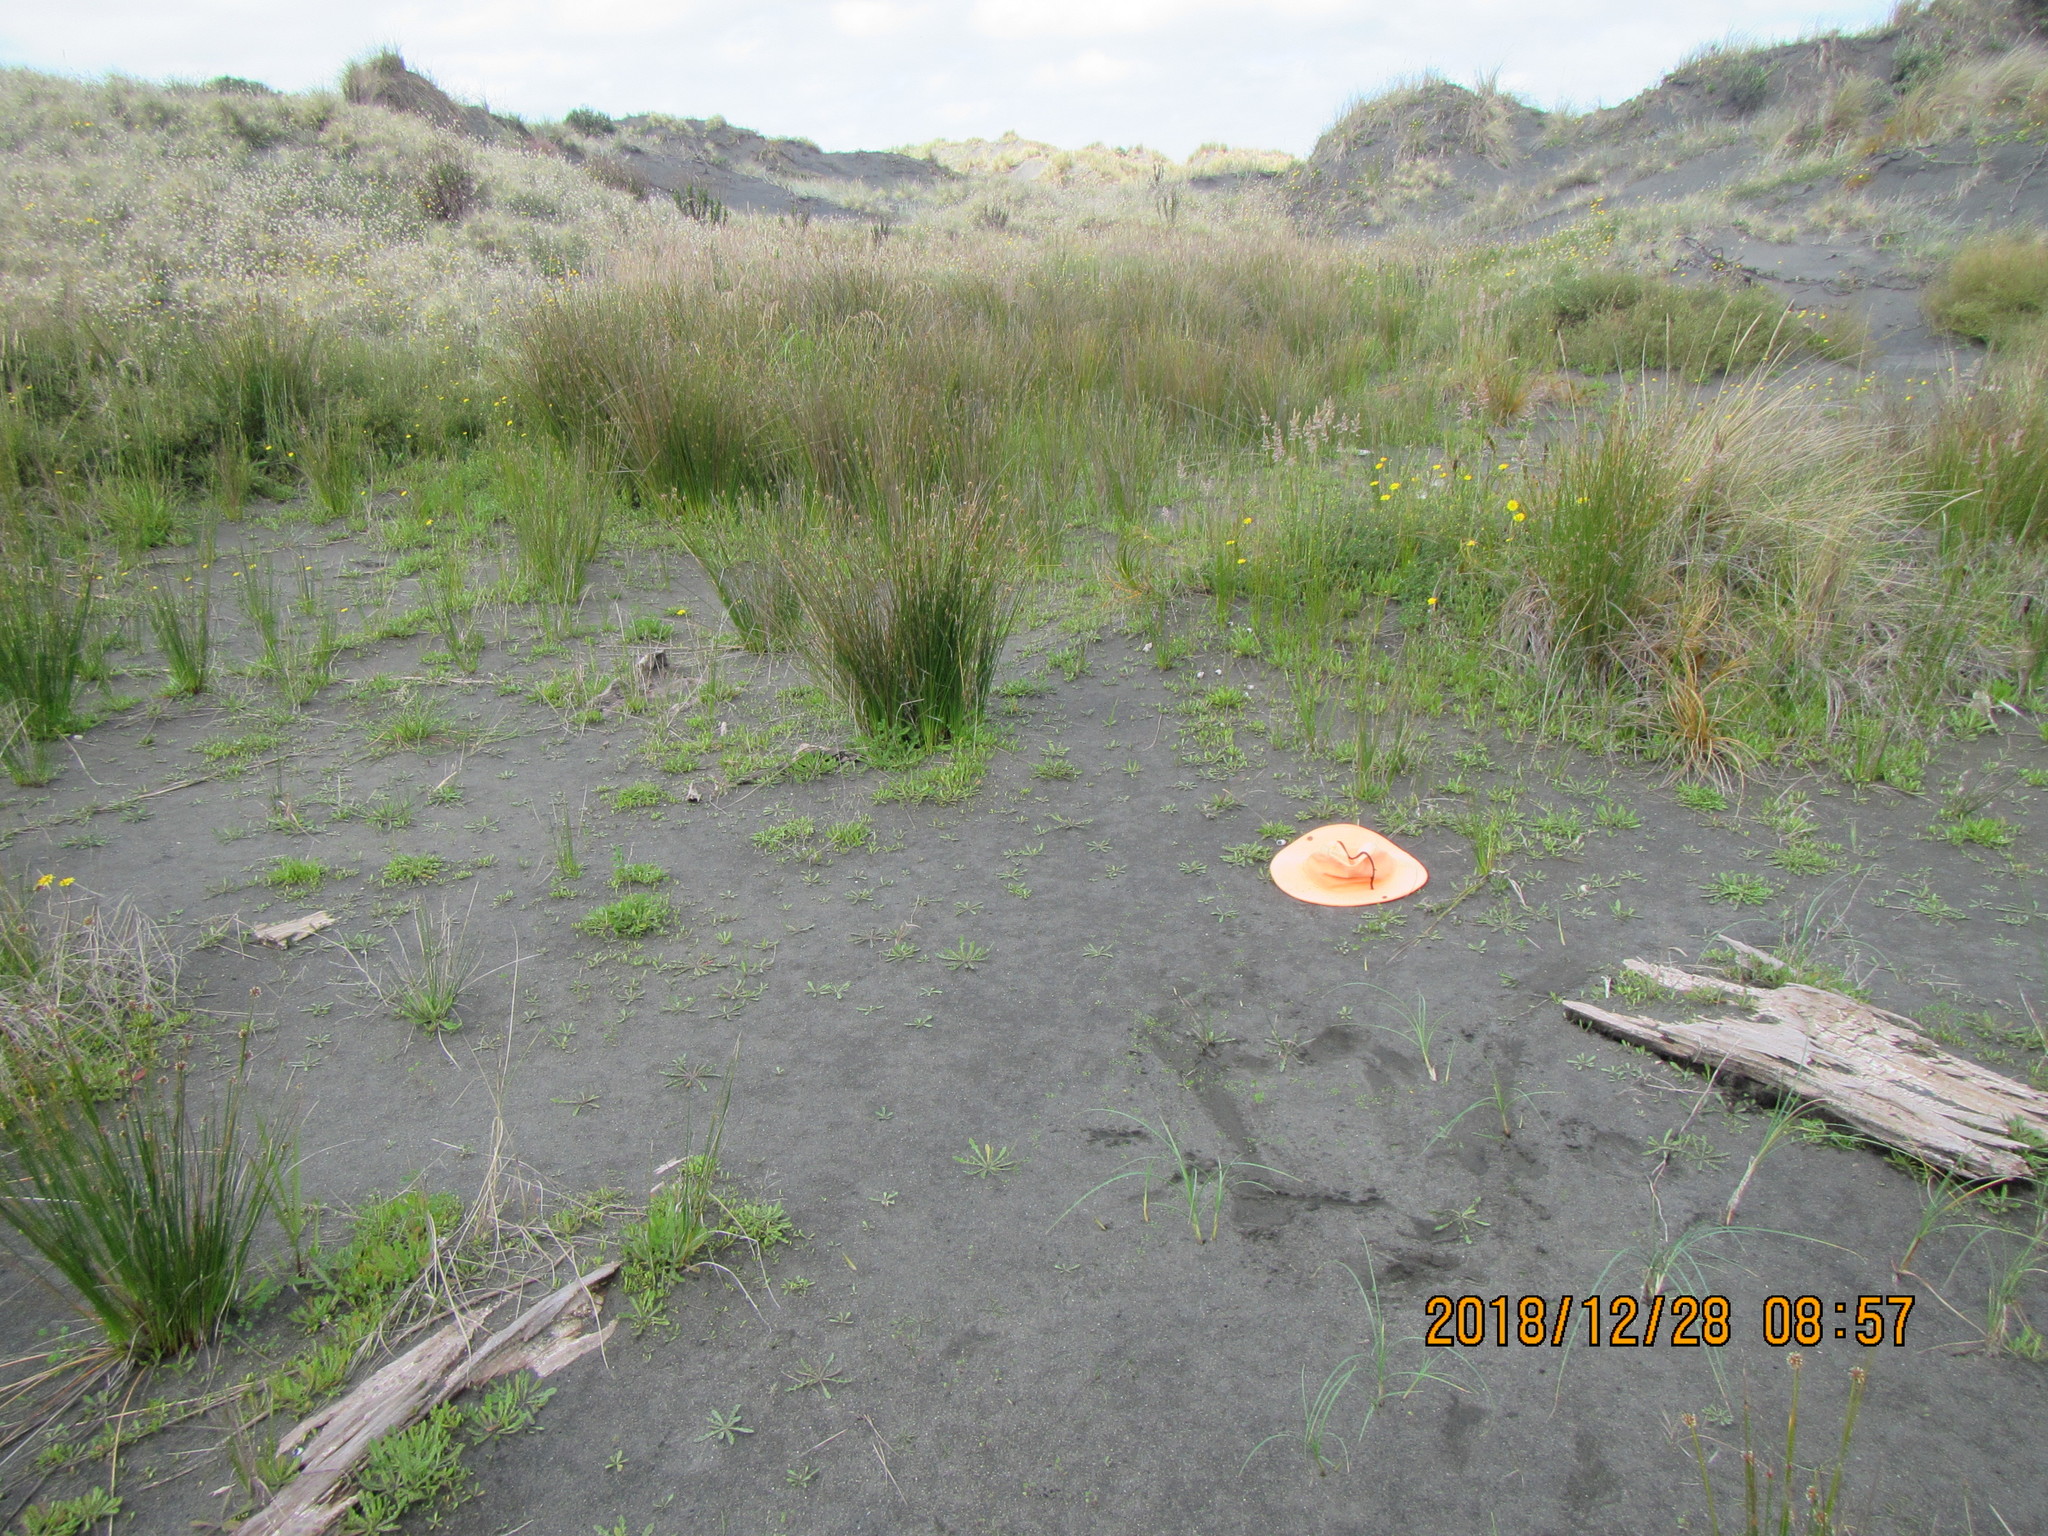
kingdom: Plantae
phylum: Tracheophyta
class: Magnoliopsida
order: Asterales
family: Campanulaceae
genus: Lobelia
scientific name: Lobelia anceps
